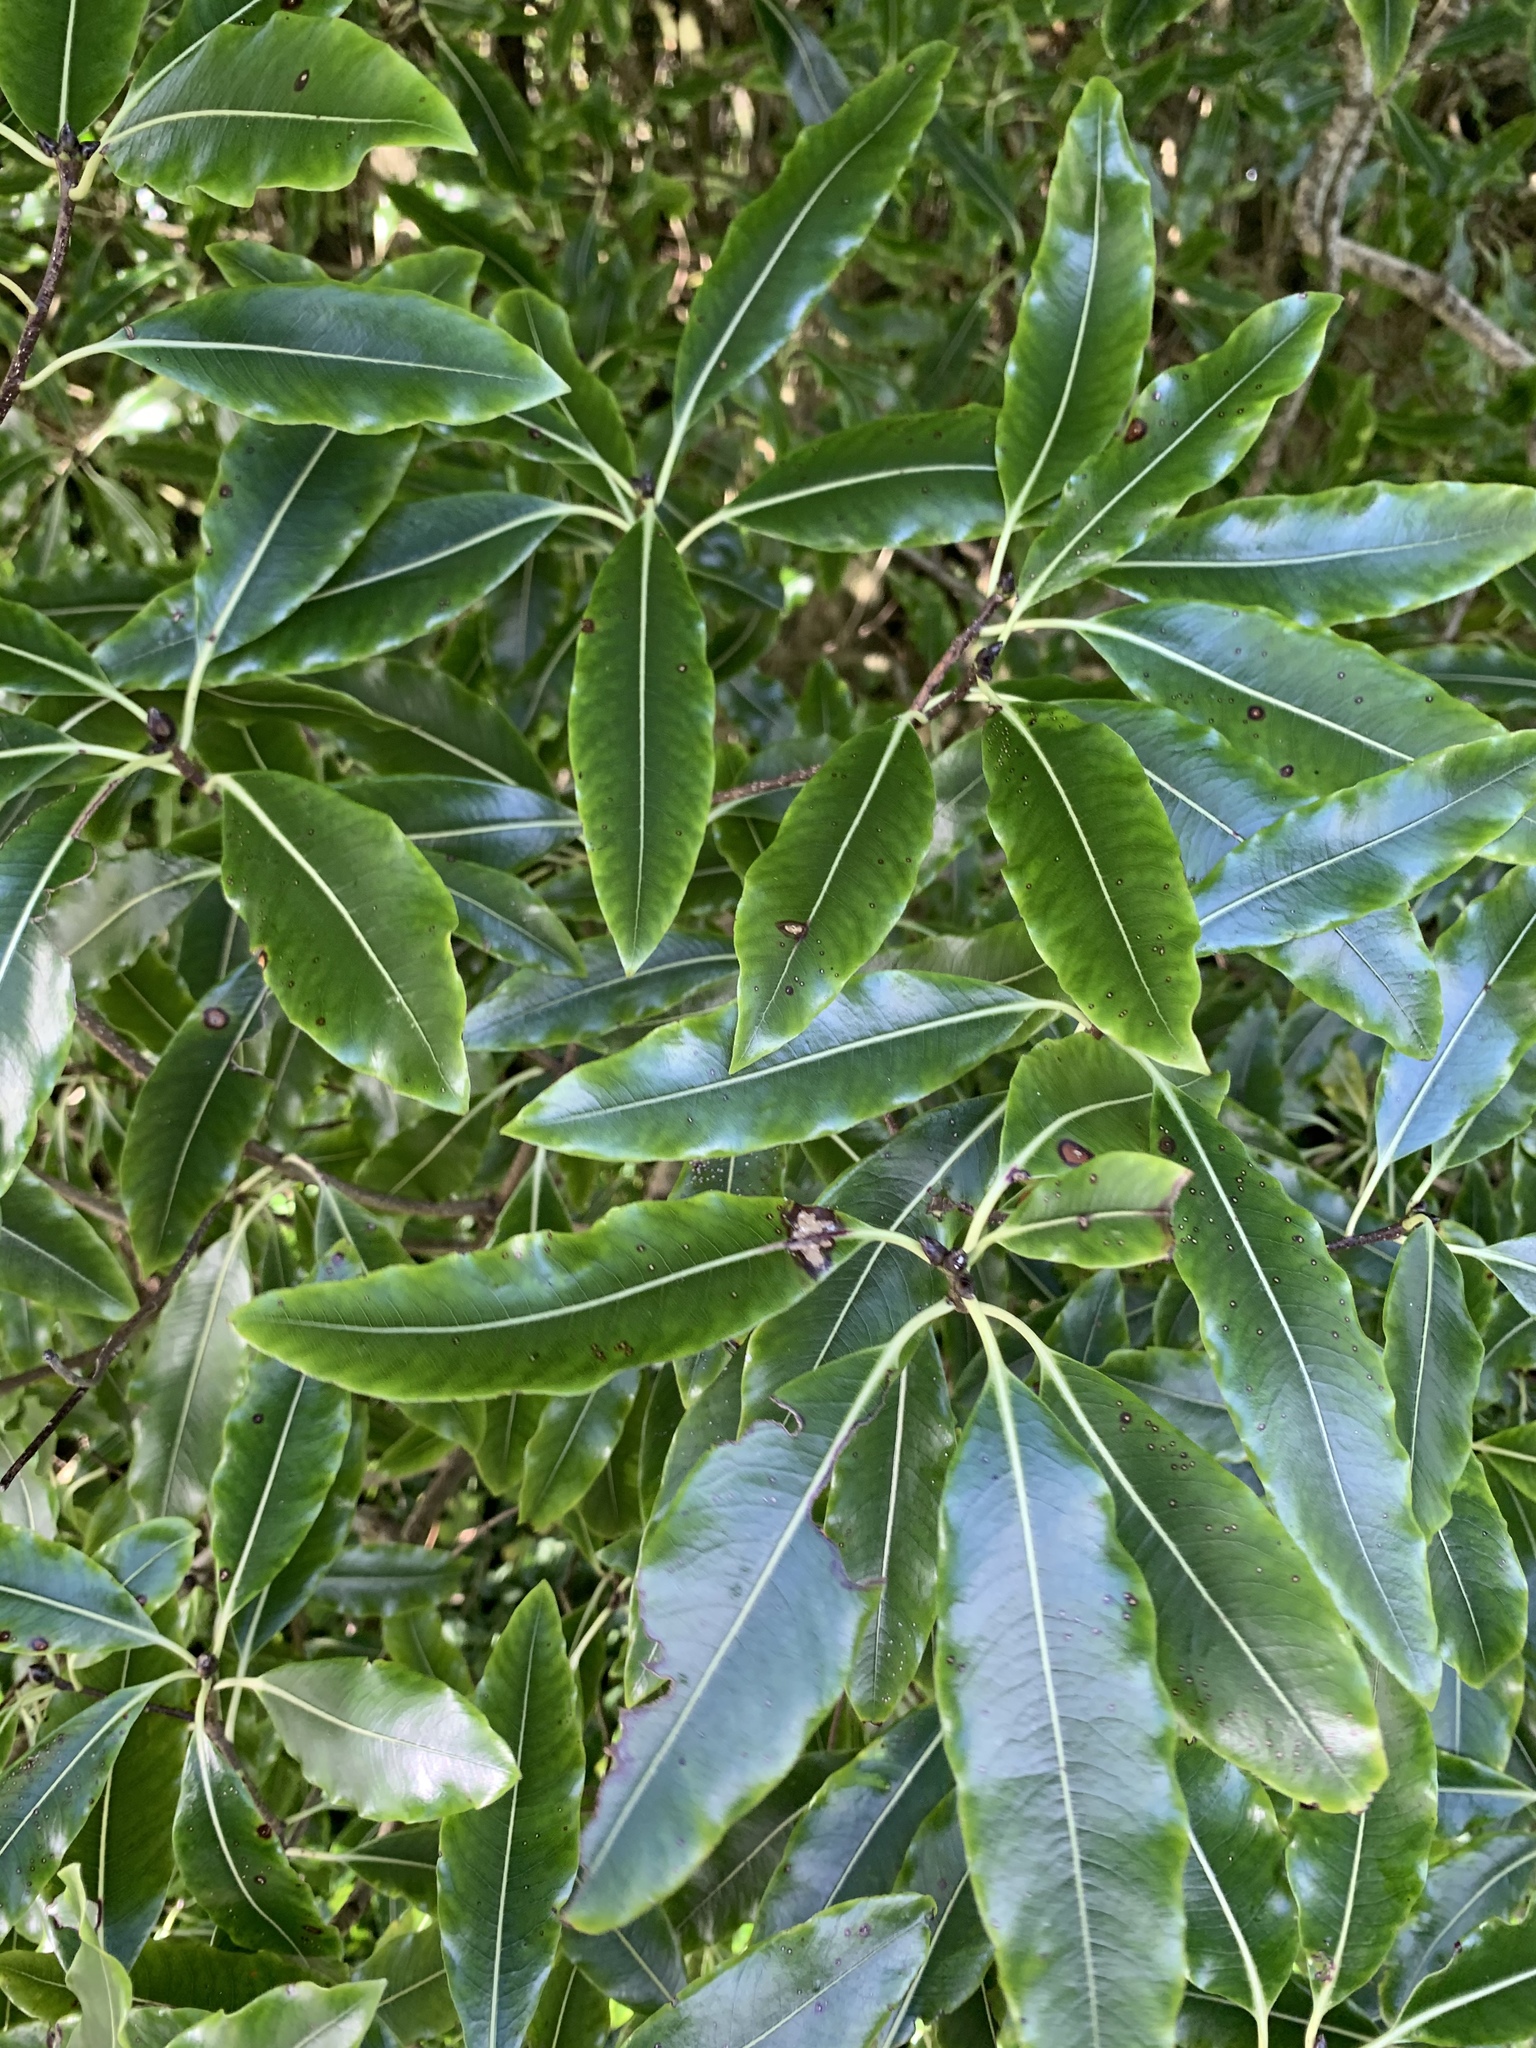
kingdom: Plantae
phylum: Tracheophyta
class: Magnoliopsida
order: Apiales
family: Pittosporaceae
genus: Pittosporum
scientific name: Pittosporum eugenioides
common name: Lemonwood
